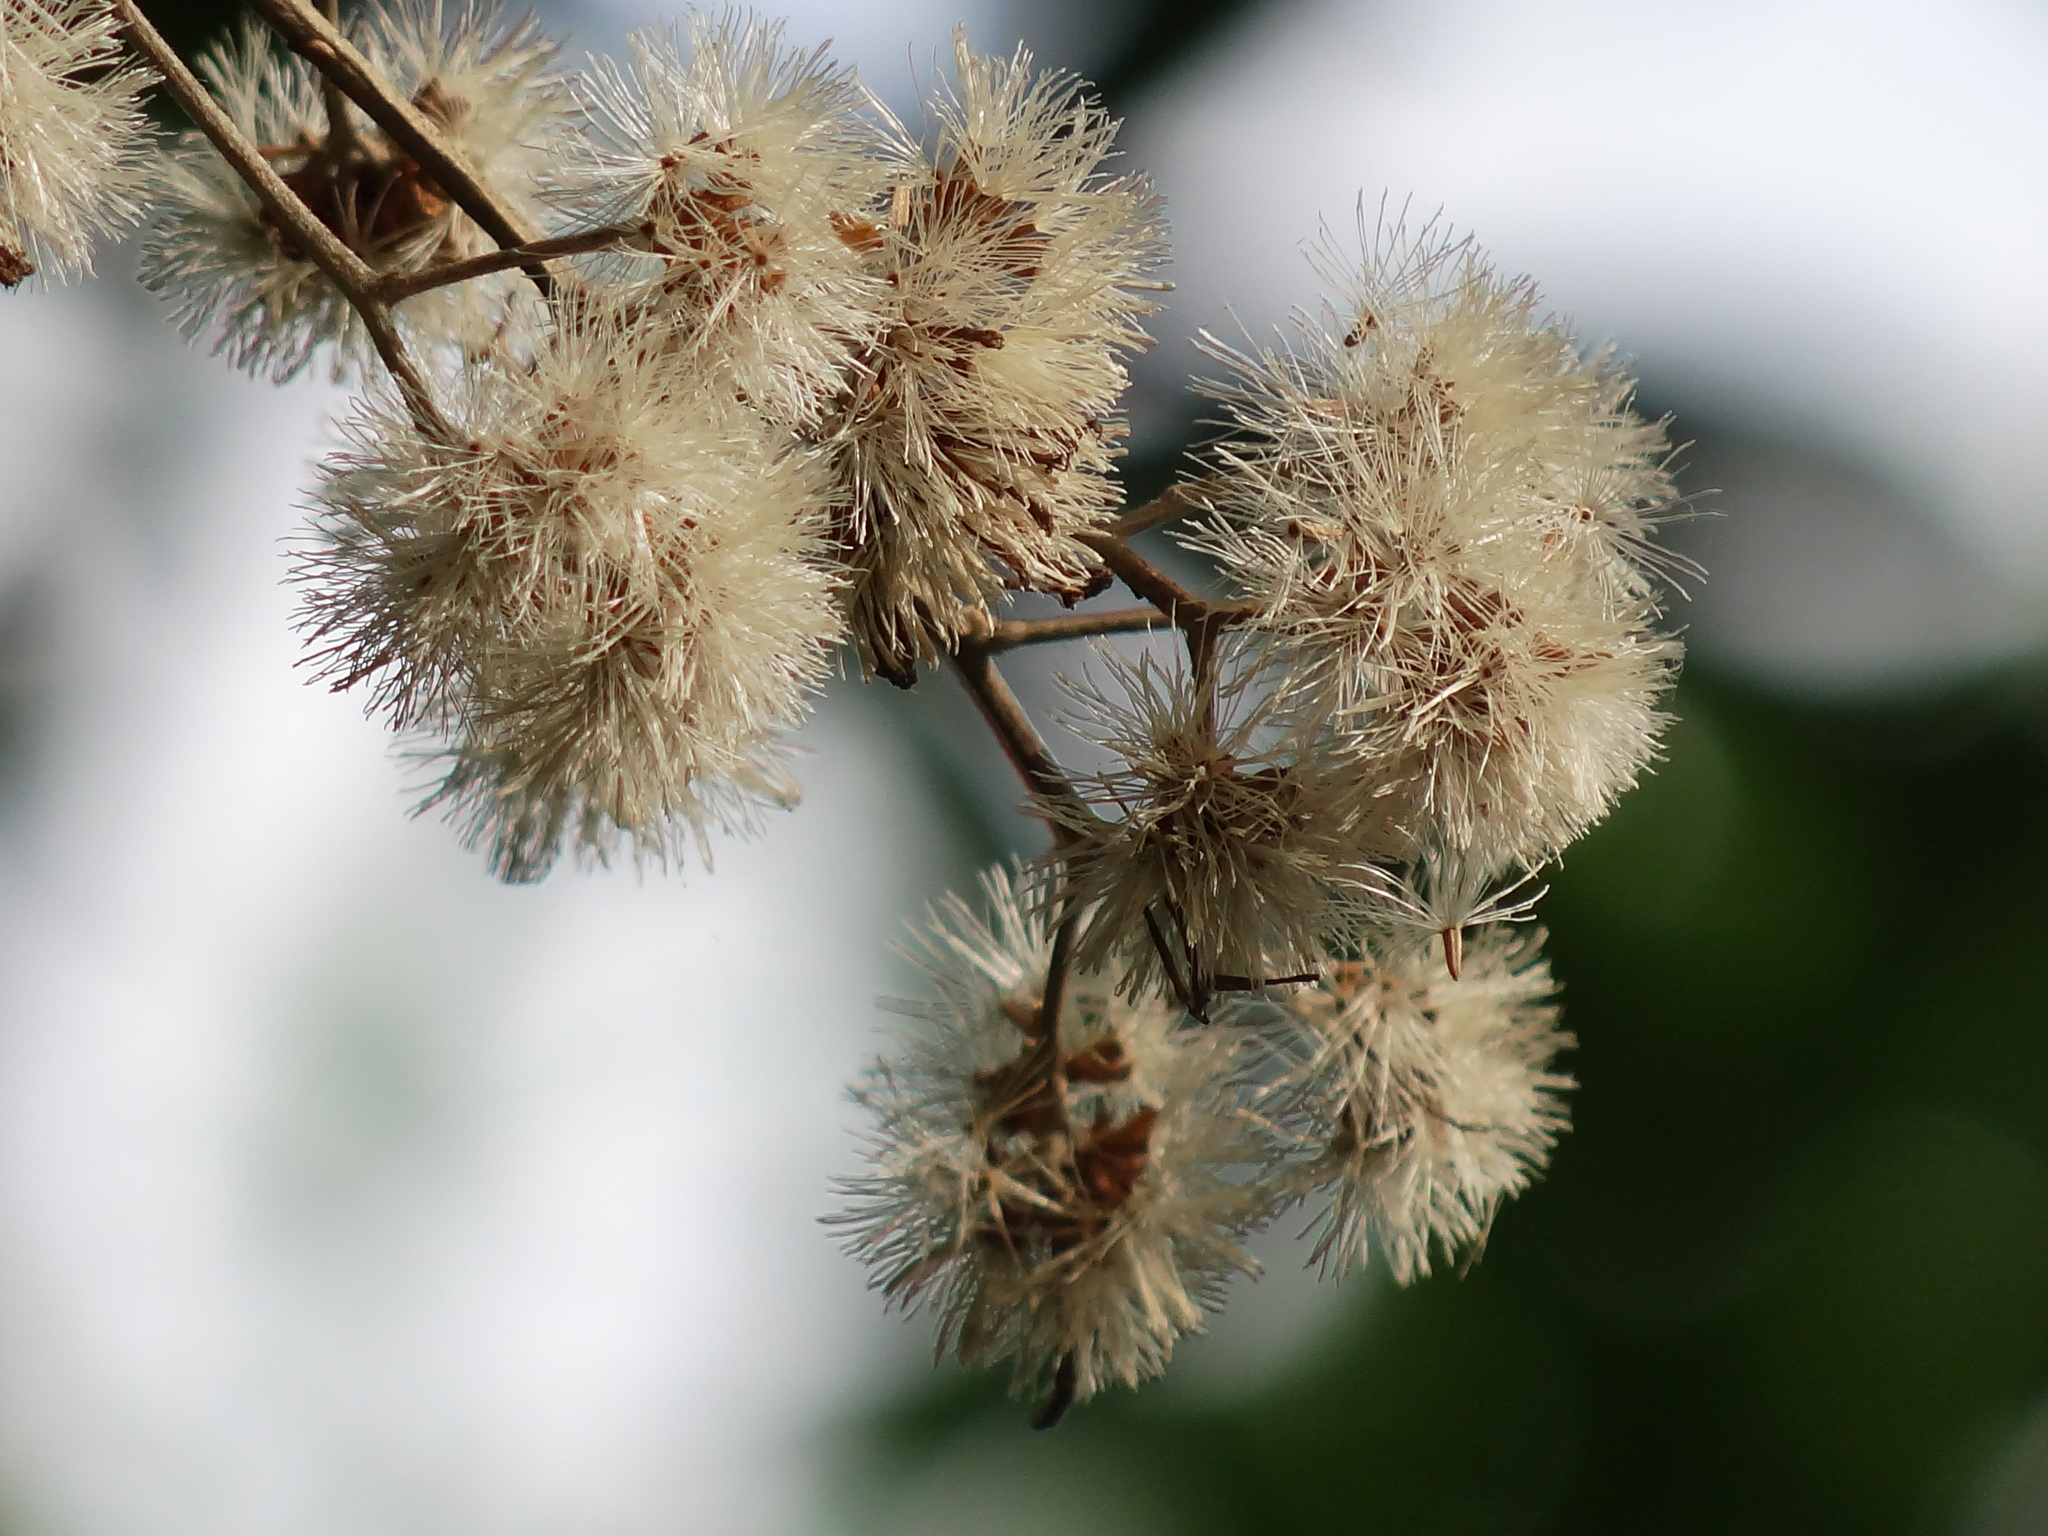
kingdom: Plantae
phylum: Tracheophyta
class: Magnoliopsida
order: Asterales
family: Asteraceae
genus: Decaneuropsis
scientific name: Decaneuropsis gratiosa
